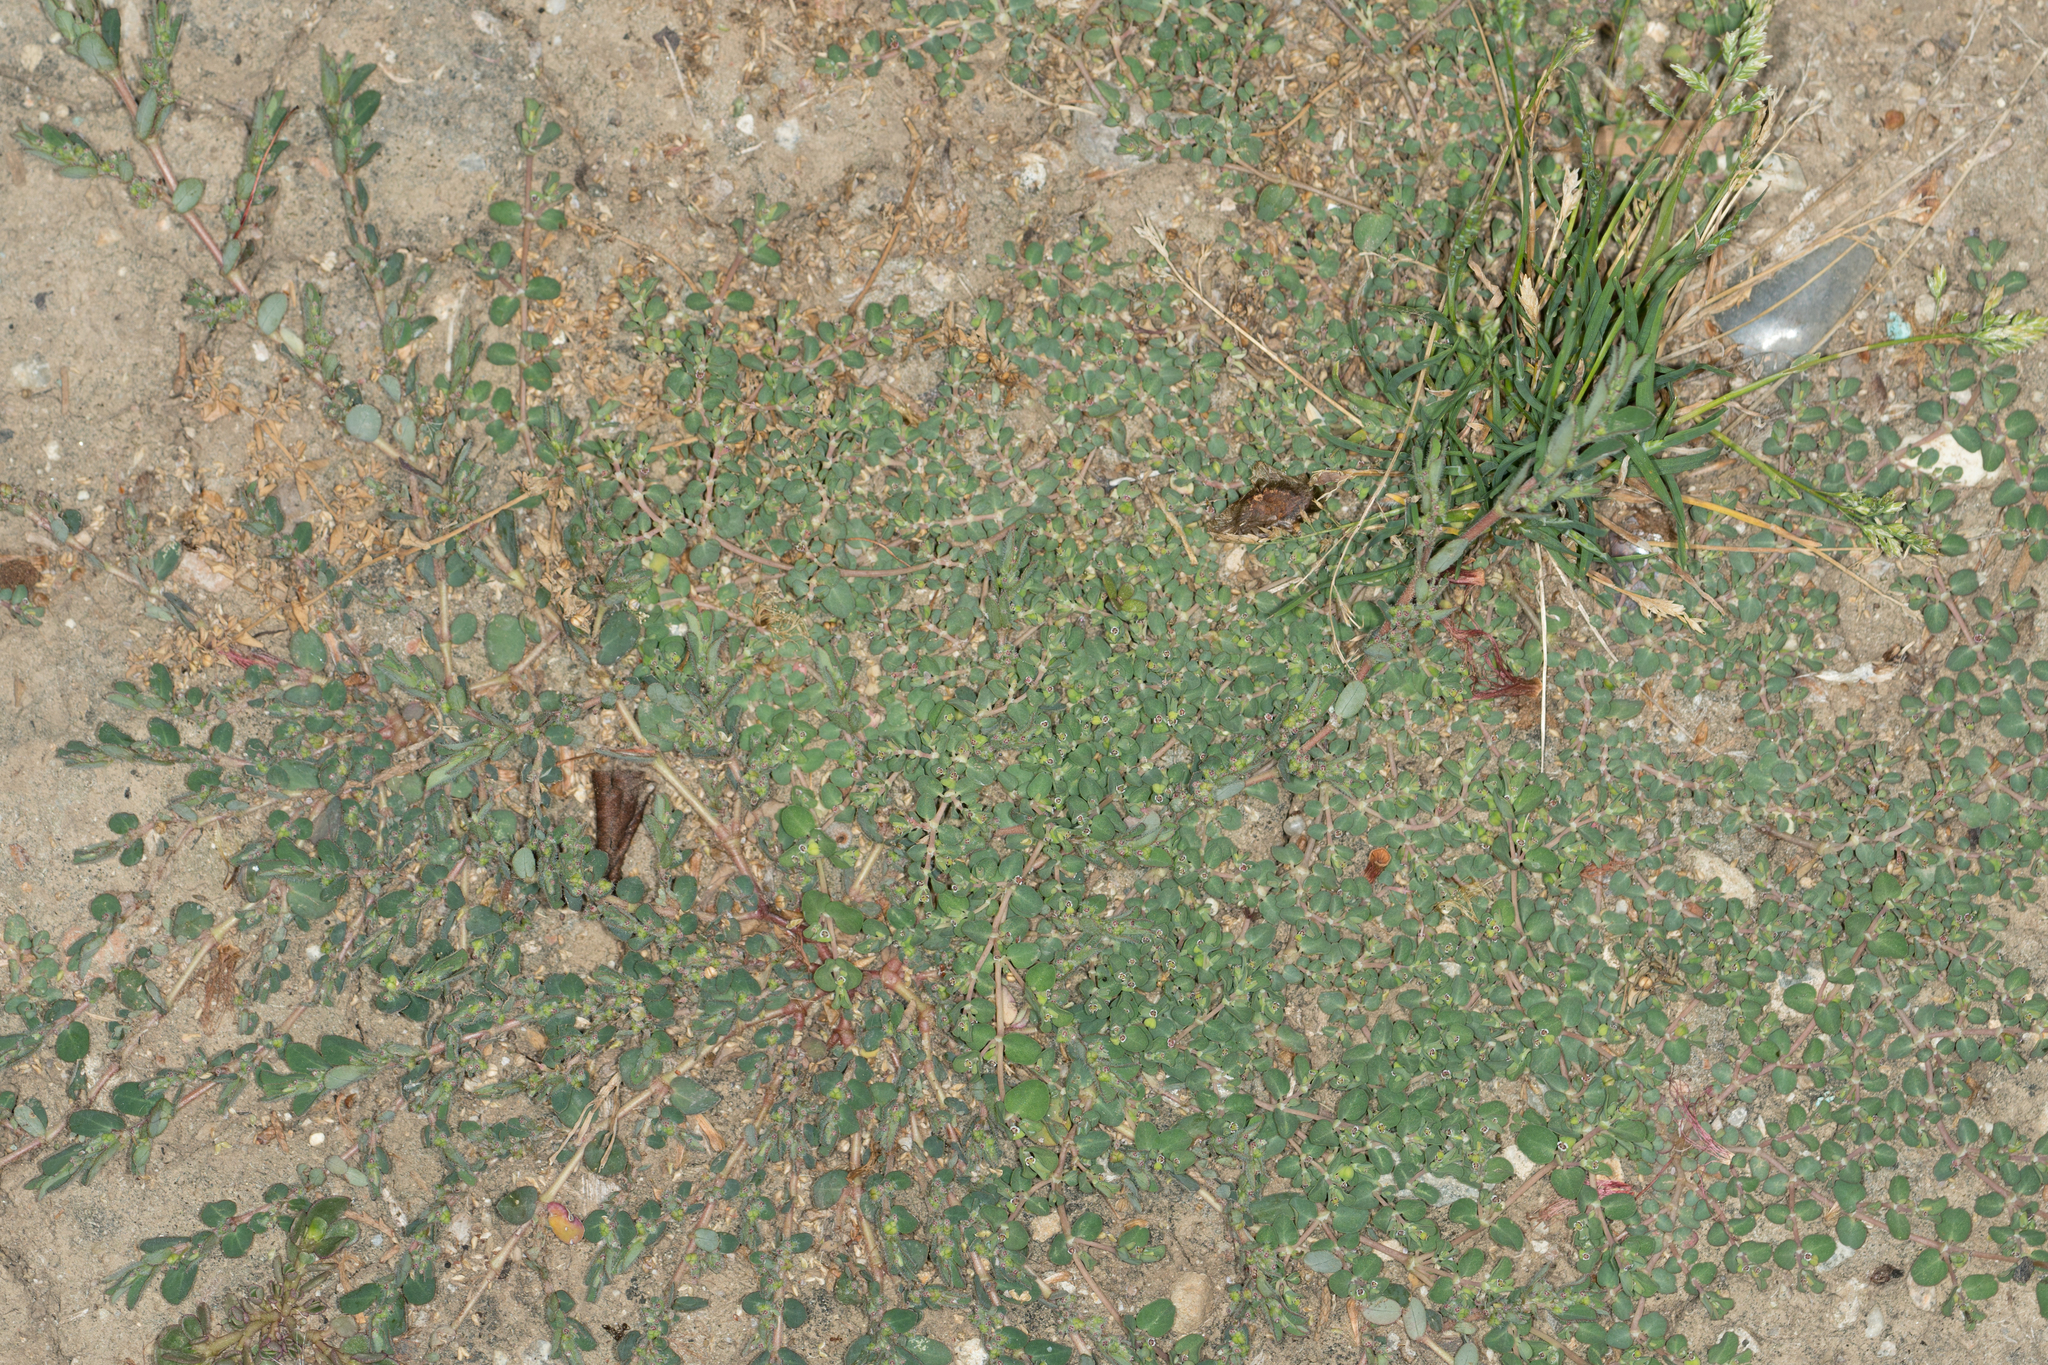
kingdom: Plantae
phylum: Tracheophyta
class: Magnoliopsida
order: Malpighiales
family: Euphorbiaceae
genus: Euphorbia
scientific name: Euphorbia serpens
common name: Matted sandmat
